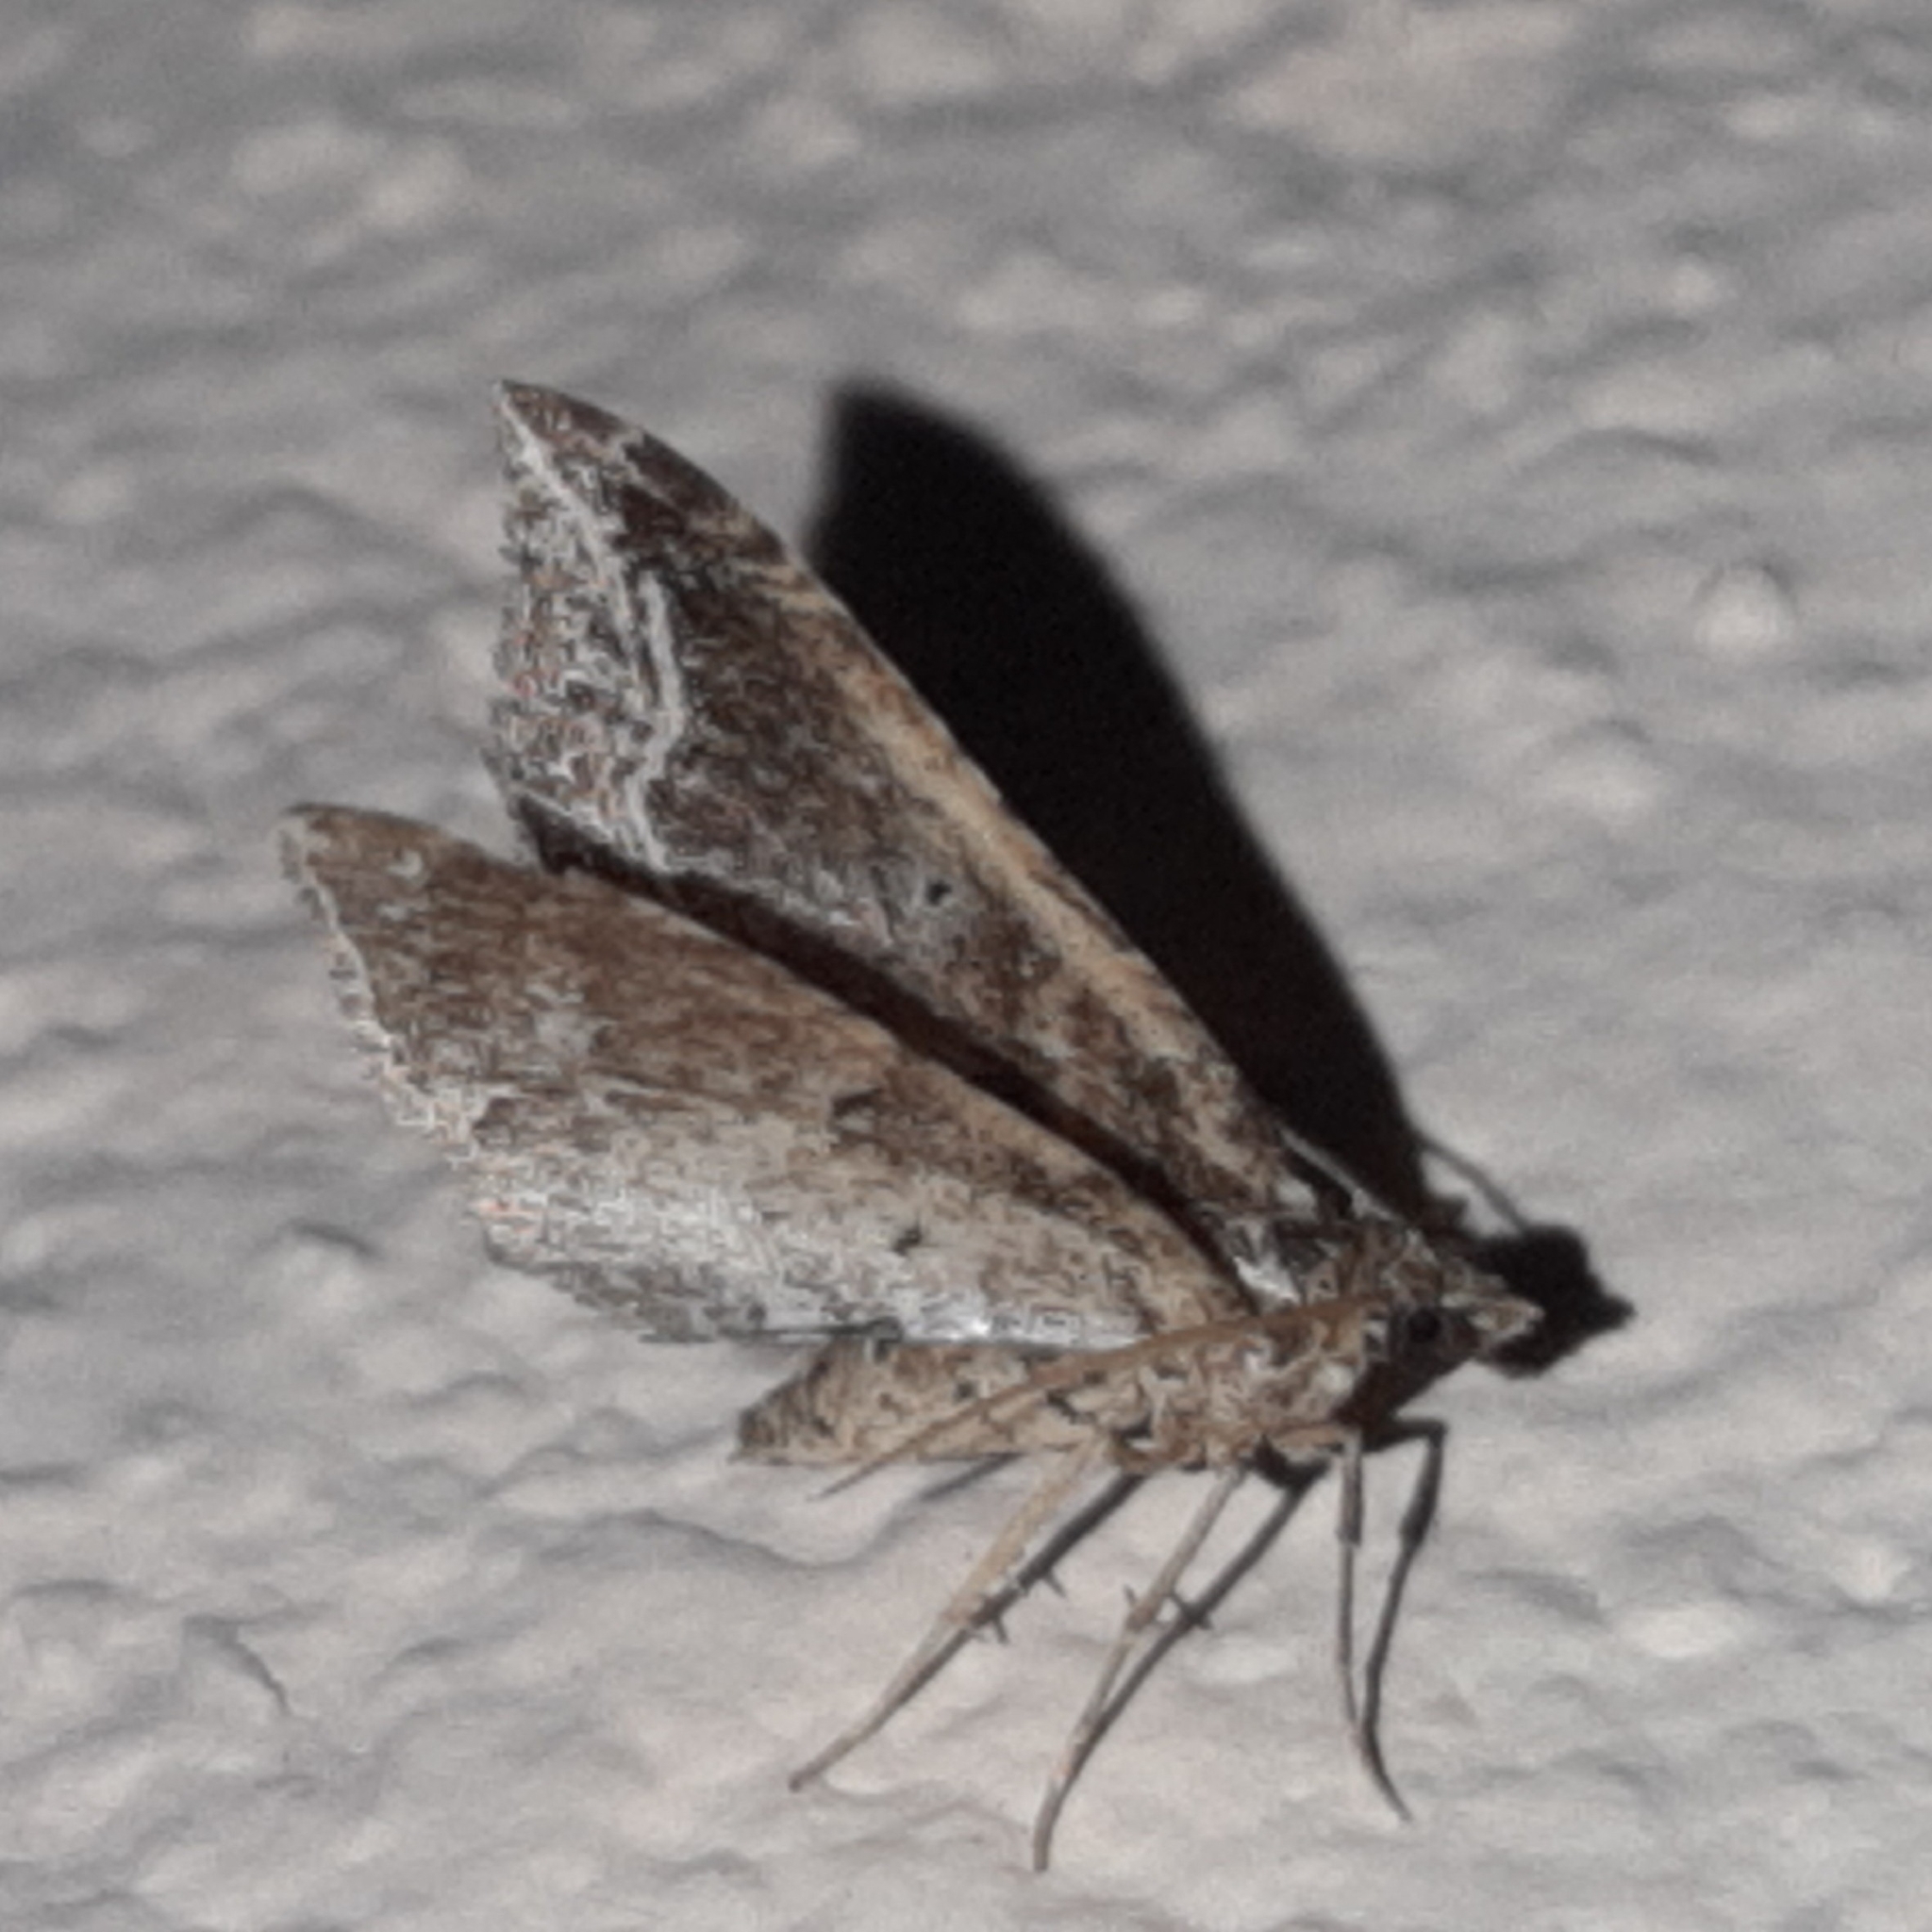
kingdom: Animalia
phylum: Arthropoda
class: Insecta
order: Lepidoptera
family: Geometridae
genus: Orthonama
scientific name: Orthonama effluata
